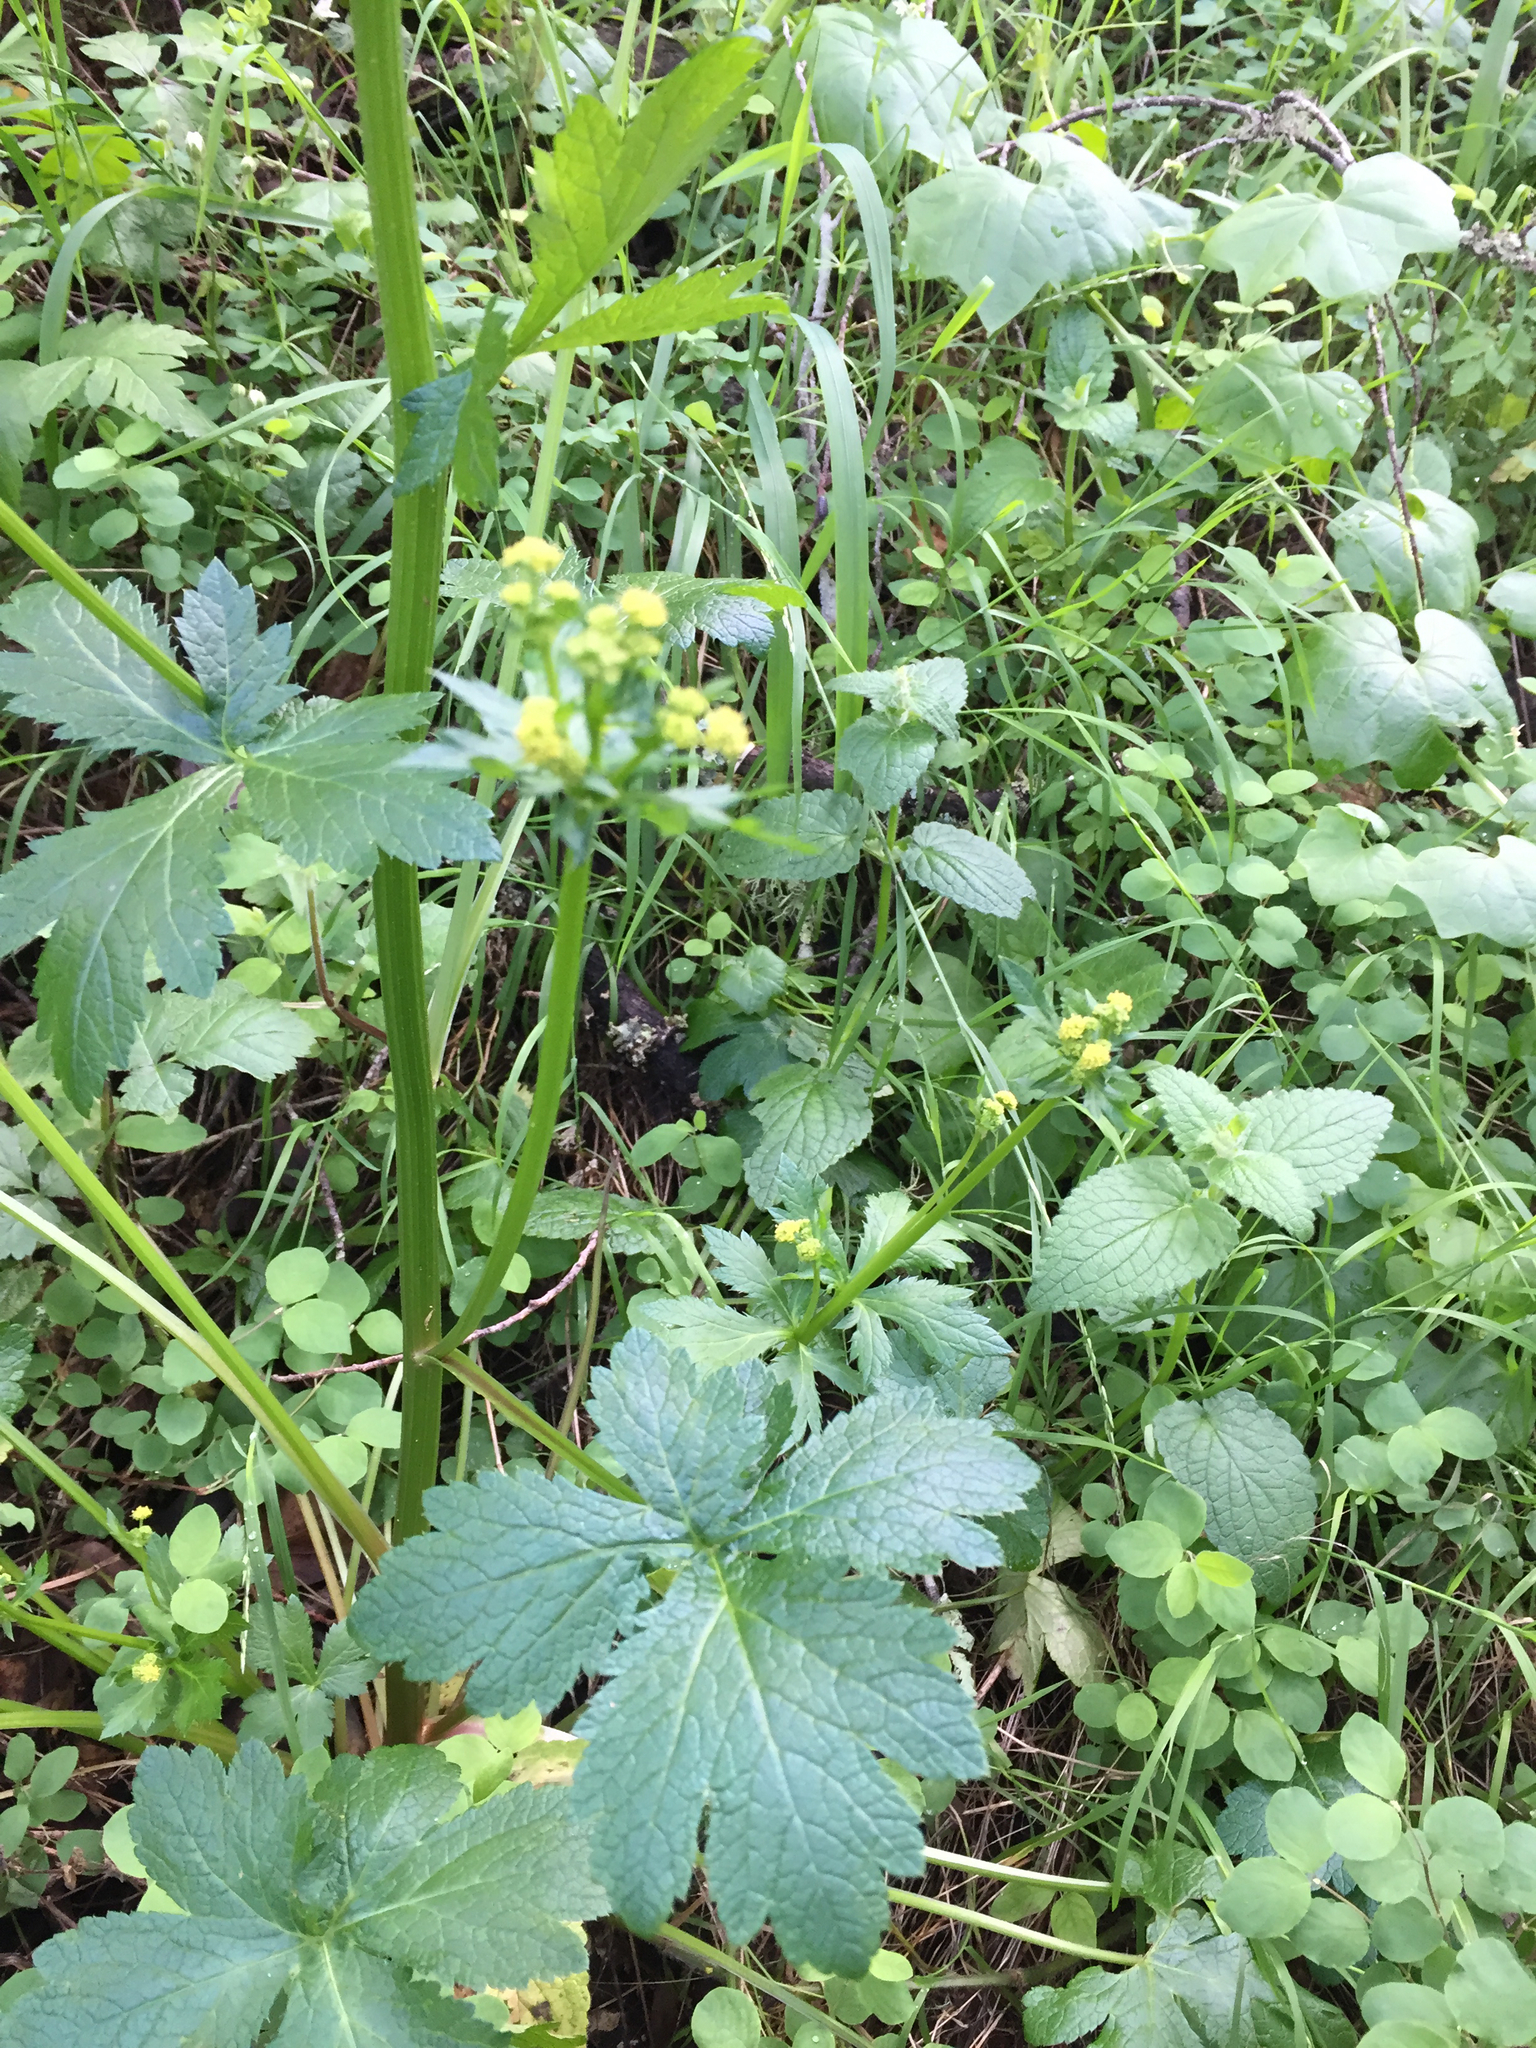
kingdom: Plantae
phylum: Tracheophyta
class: Magnoliopsida
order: Apiales
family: Apiaceae
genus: Sanicula
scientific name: Sanicula crassicaulis
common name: Western snakeroot
